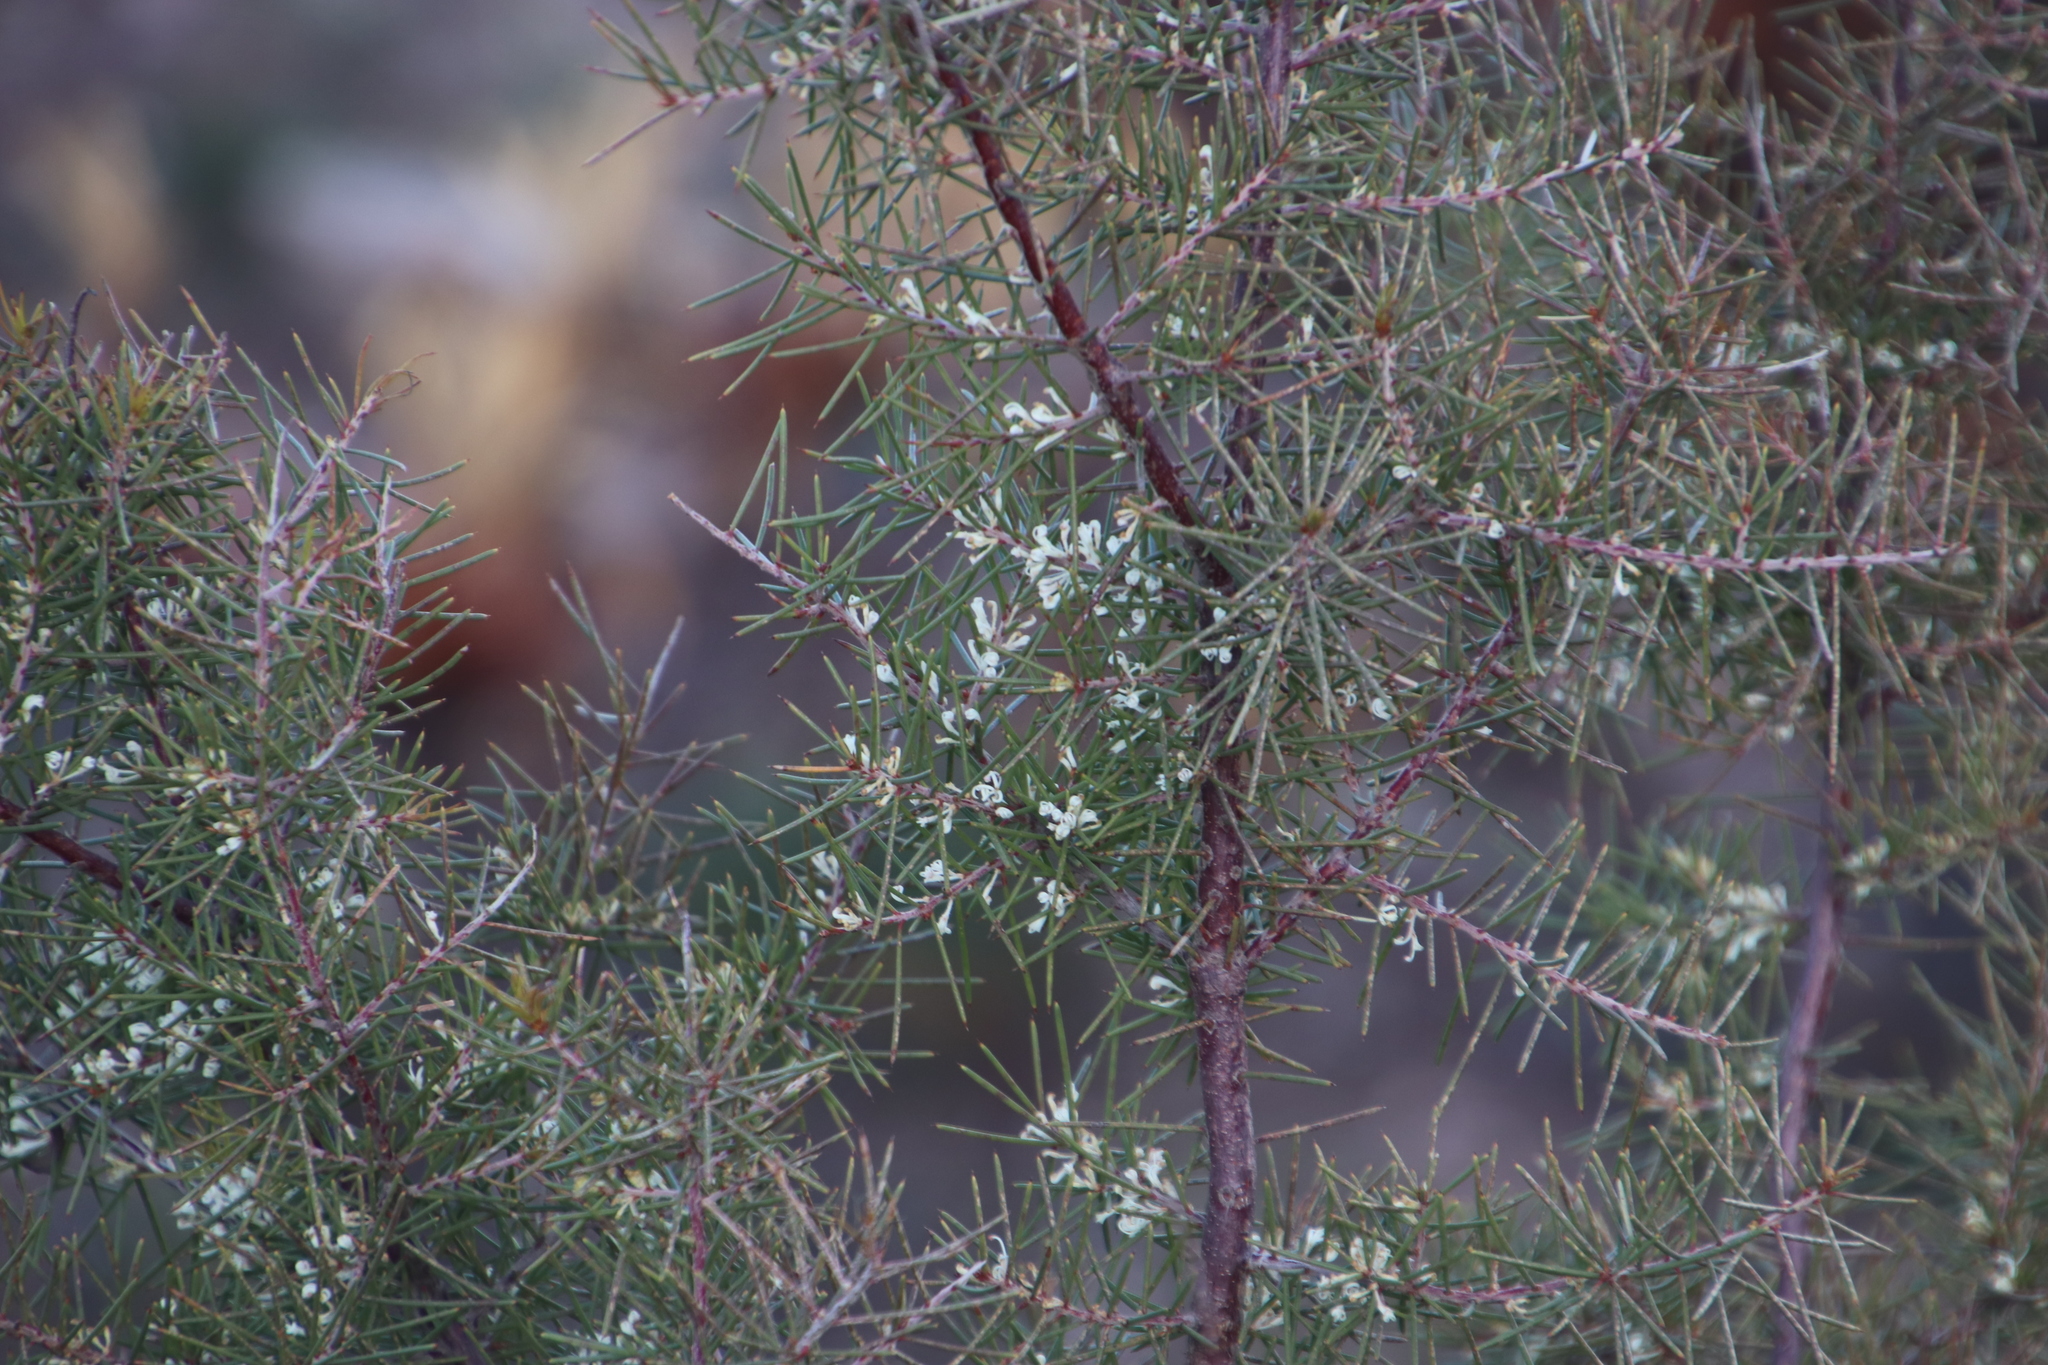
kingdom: Plantae
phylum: Tracheophyta
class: Magnoliopsida
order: Proteales
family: Proteaceae
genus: Hakea
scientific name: Hakea sericea
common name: Needle bush
